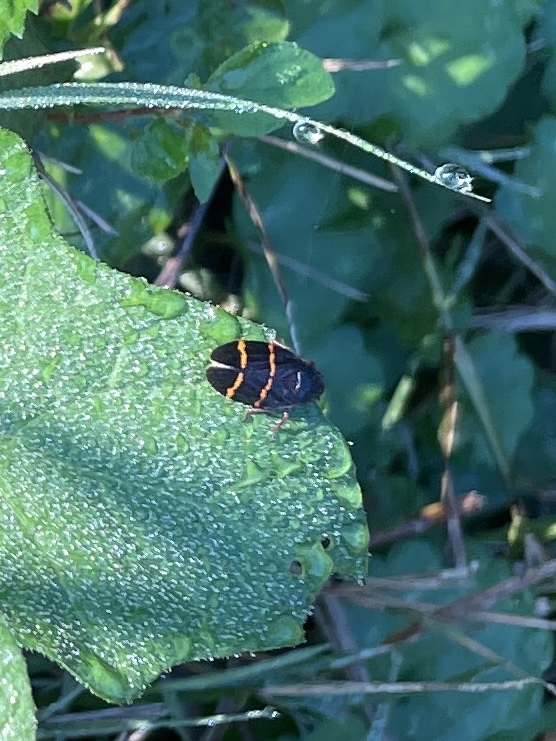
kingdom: Animalia
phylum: Arthropoda
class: Insecta
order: Hemiptera
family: Cercopidae
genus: Prosapia
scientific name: Prosapia bicincta
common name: Twolined spittlebug
